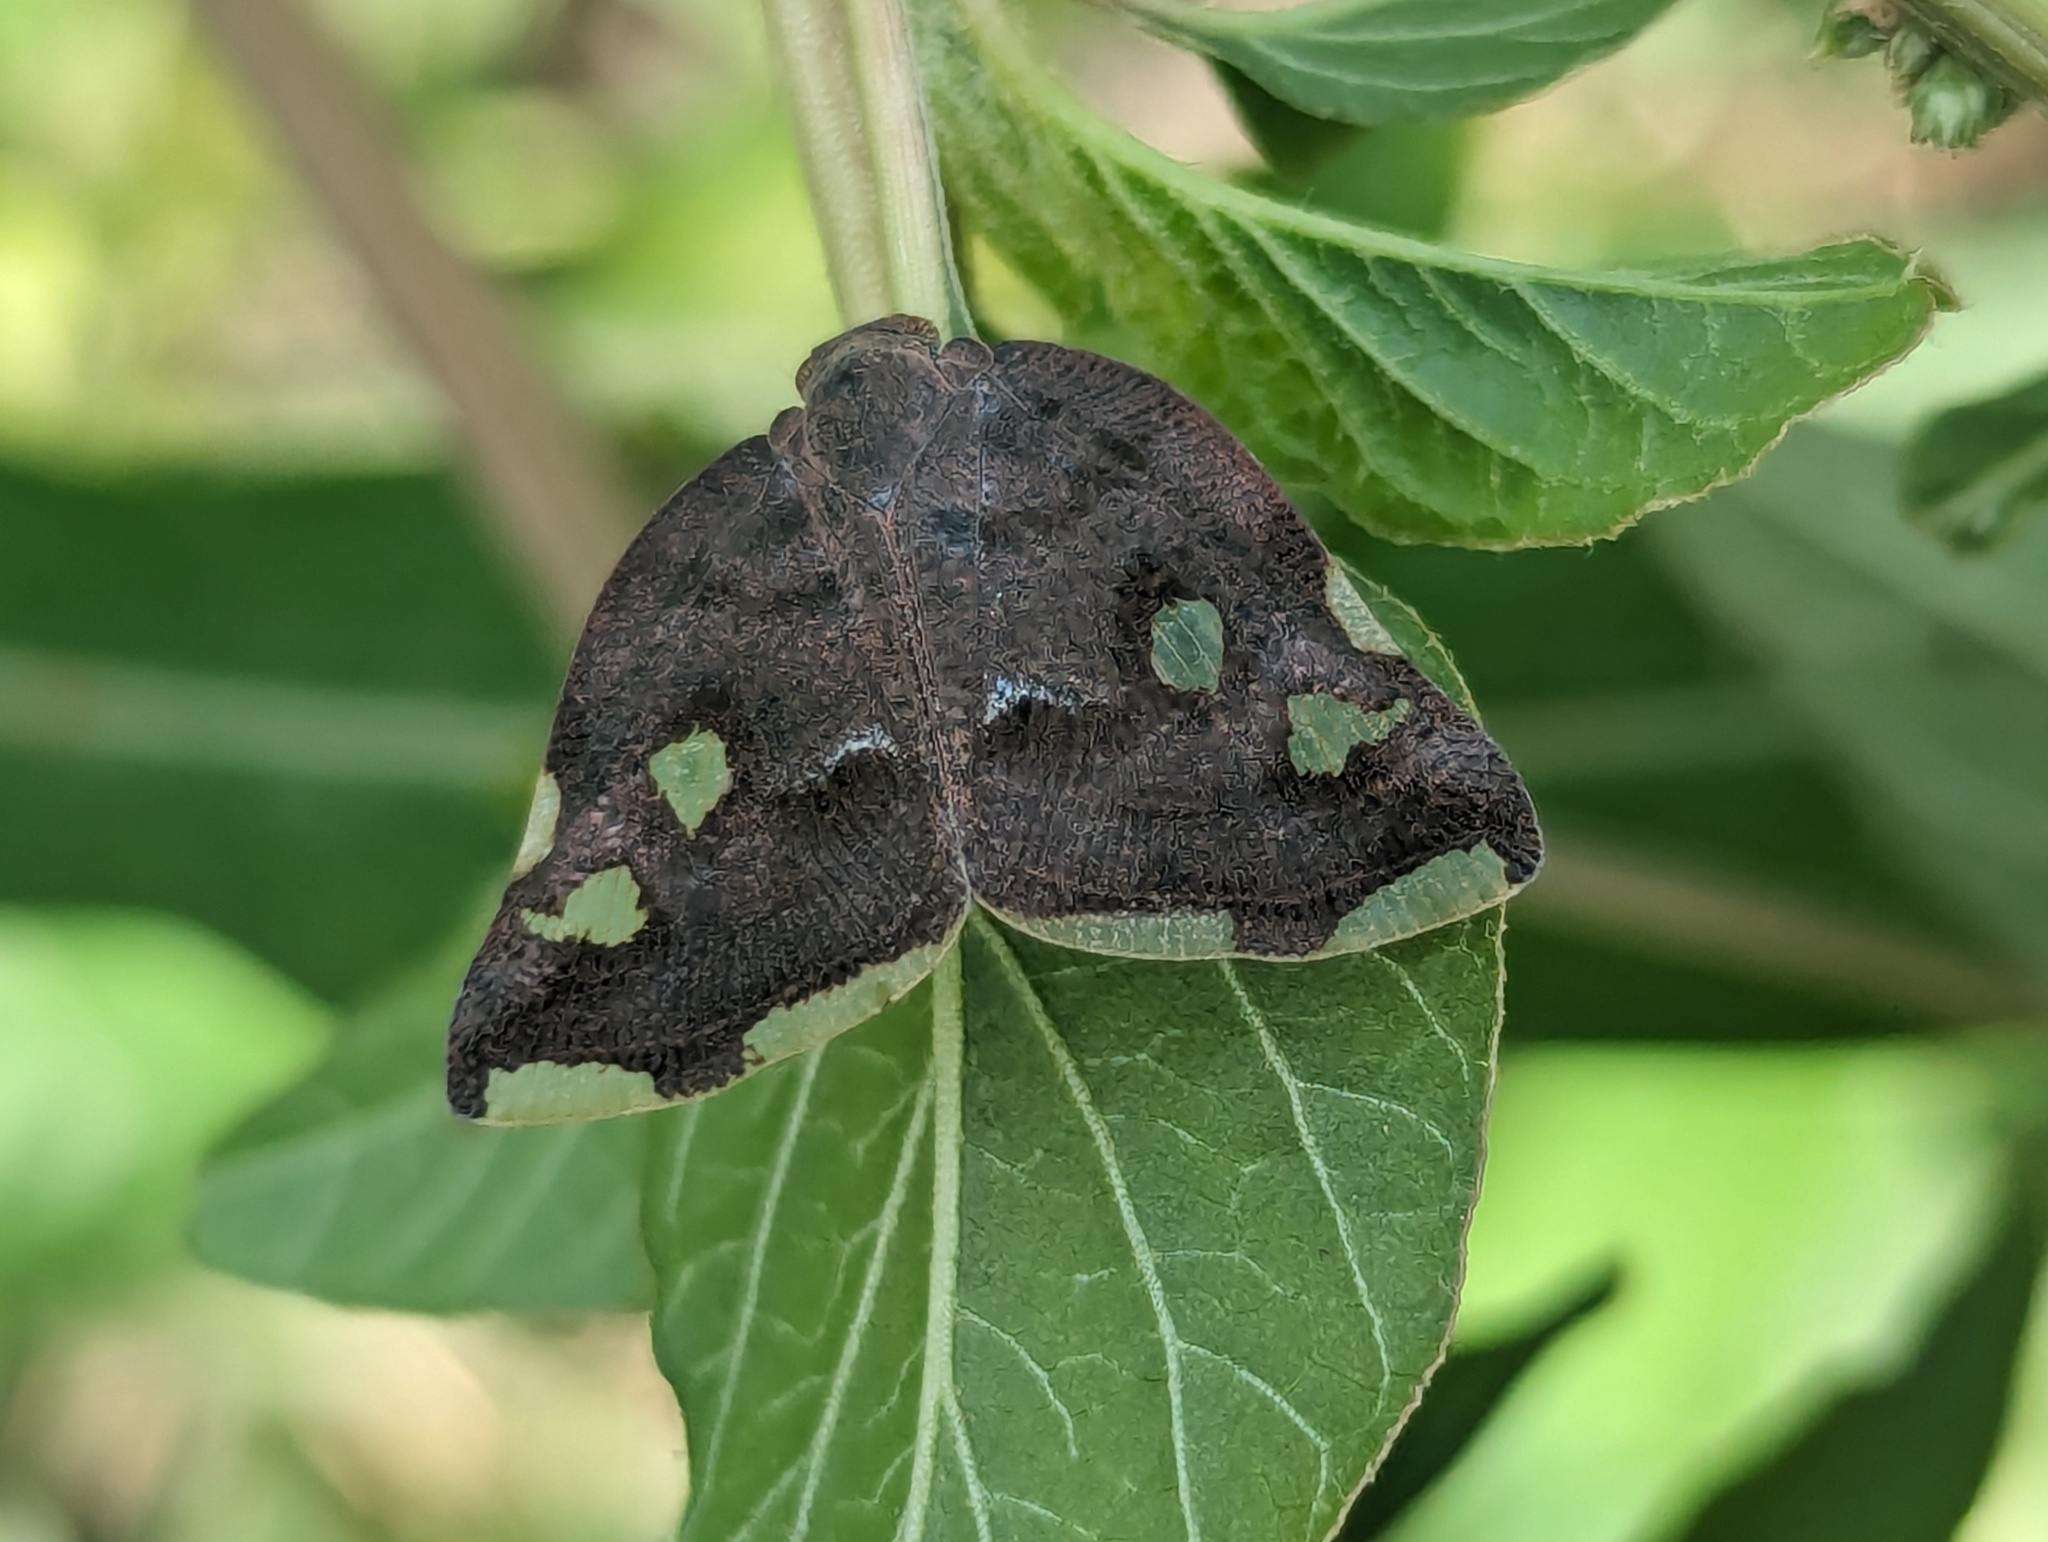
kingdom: Animalia
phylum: Arthropoda
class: Insecta
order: Hemiptera
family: Ricaniidae
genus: Ricania
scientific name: Ricania speculum
